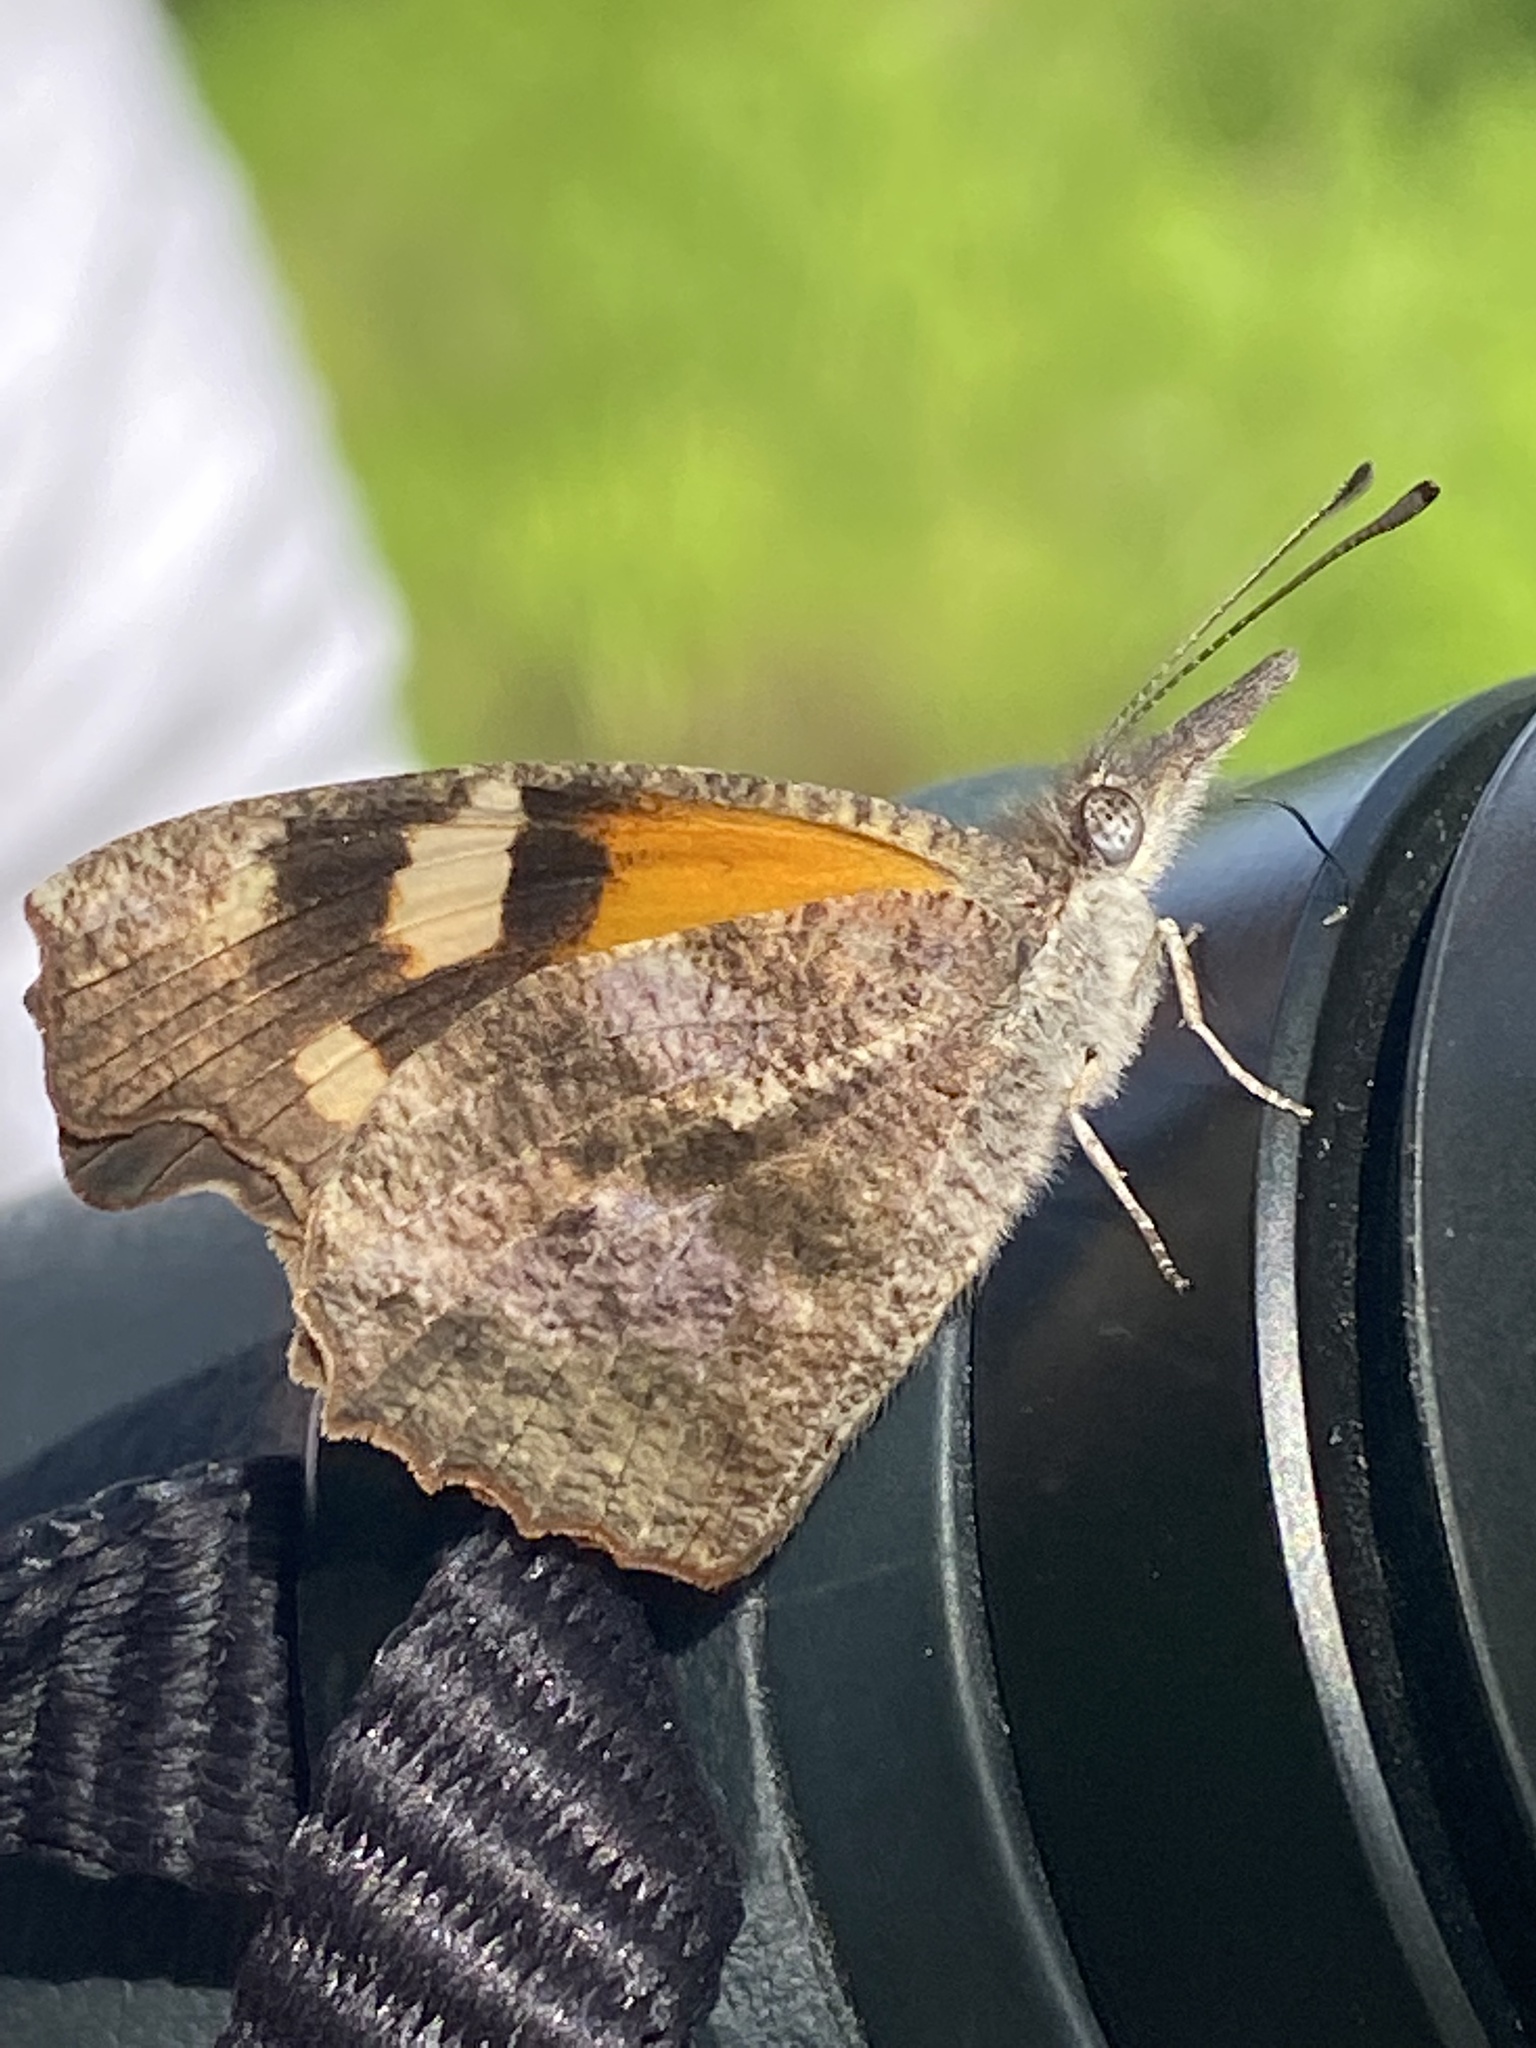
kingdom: Animalia
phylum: Arthropoda
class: Insecta
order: Lepidoptera
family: Nymphalidae
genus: Libytheana
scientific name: Libytheana carinenta
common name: American snout
